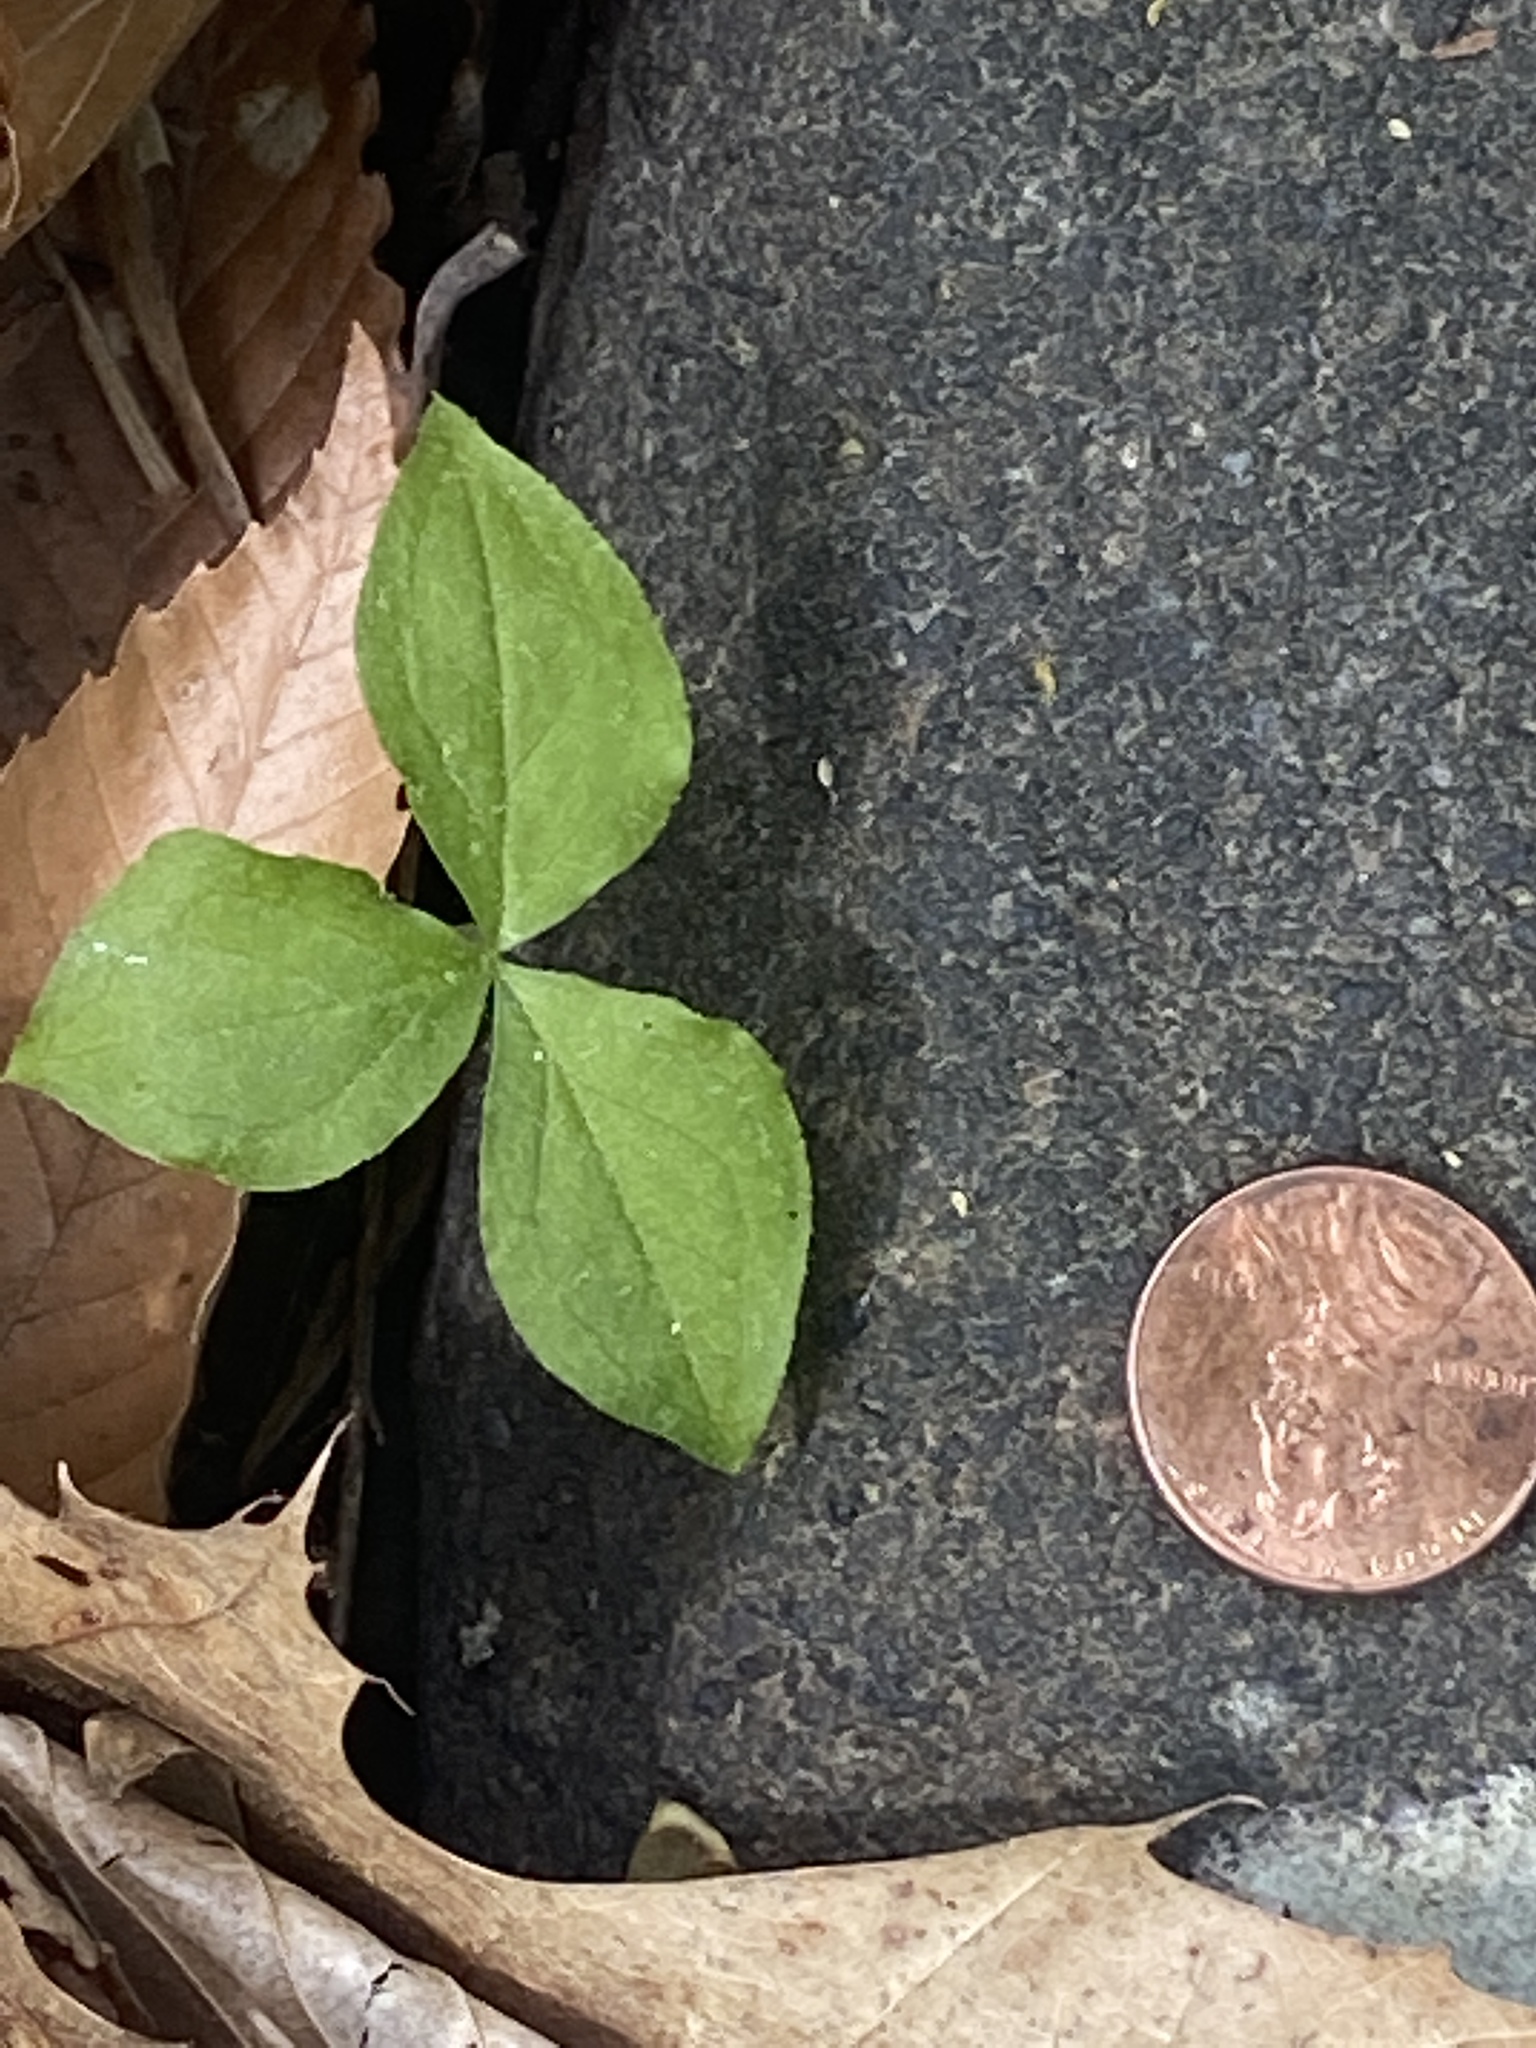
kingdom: Plantae
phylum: Tracheophyta
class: Liliopsida
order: Alismatales
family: Araceae
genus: Arisaema
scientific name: Arisaema triphyllum
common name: Jack-in-the-pulpit
